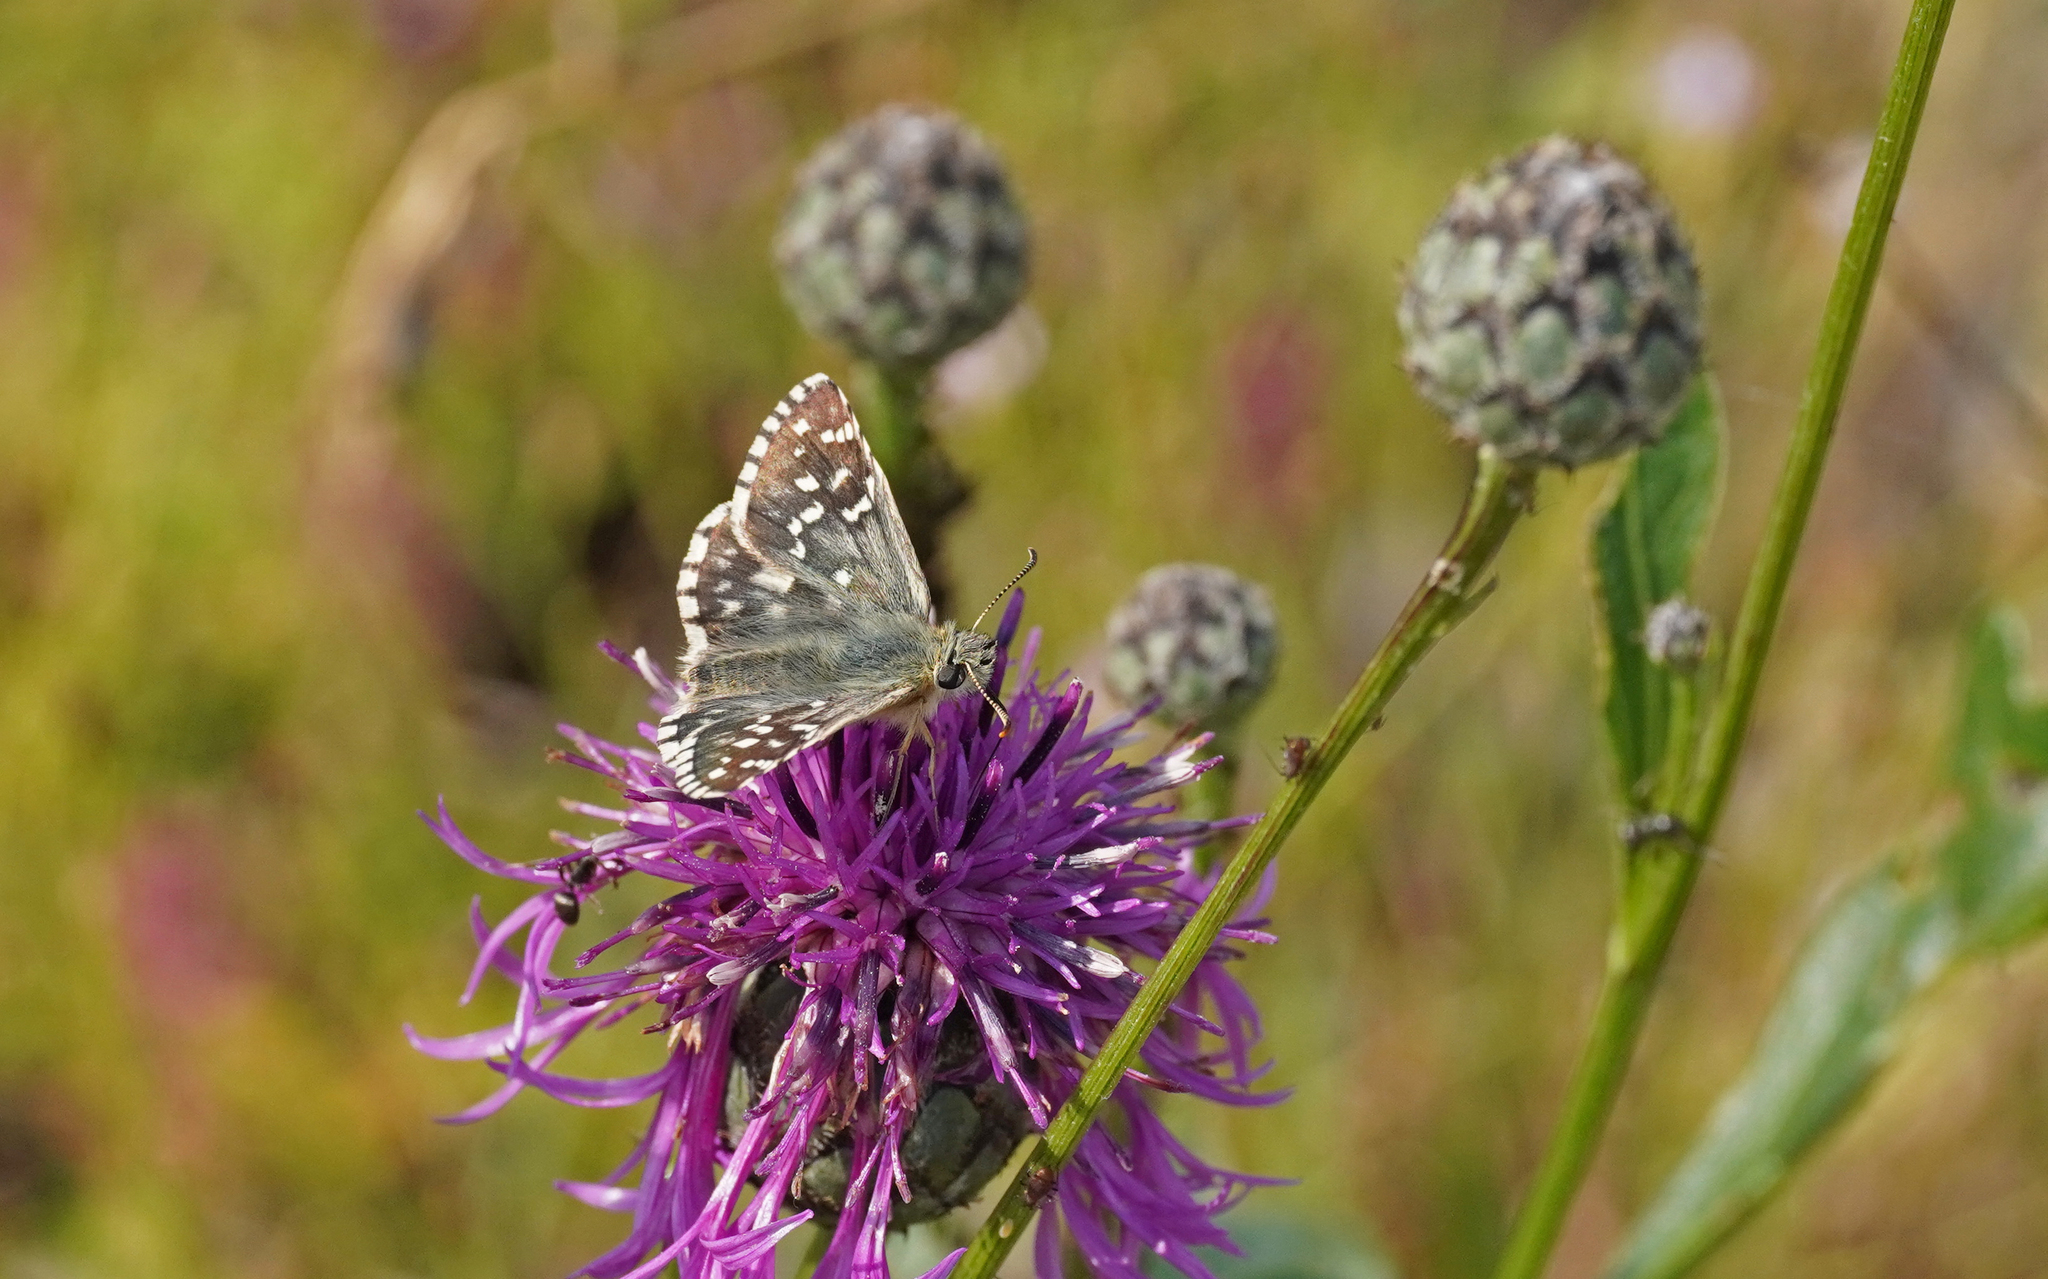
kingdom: Animalia
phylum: Arthropoda
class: Insecta
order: Lepidoptera
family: Hesperiidae
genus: Pyrgus
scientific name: Pyrgus armoricanus
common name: Oberthür's grizzled skipper
